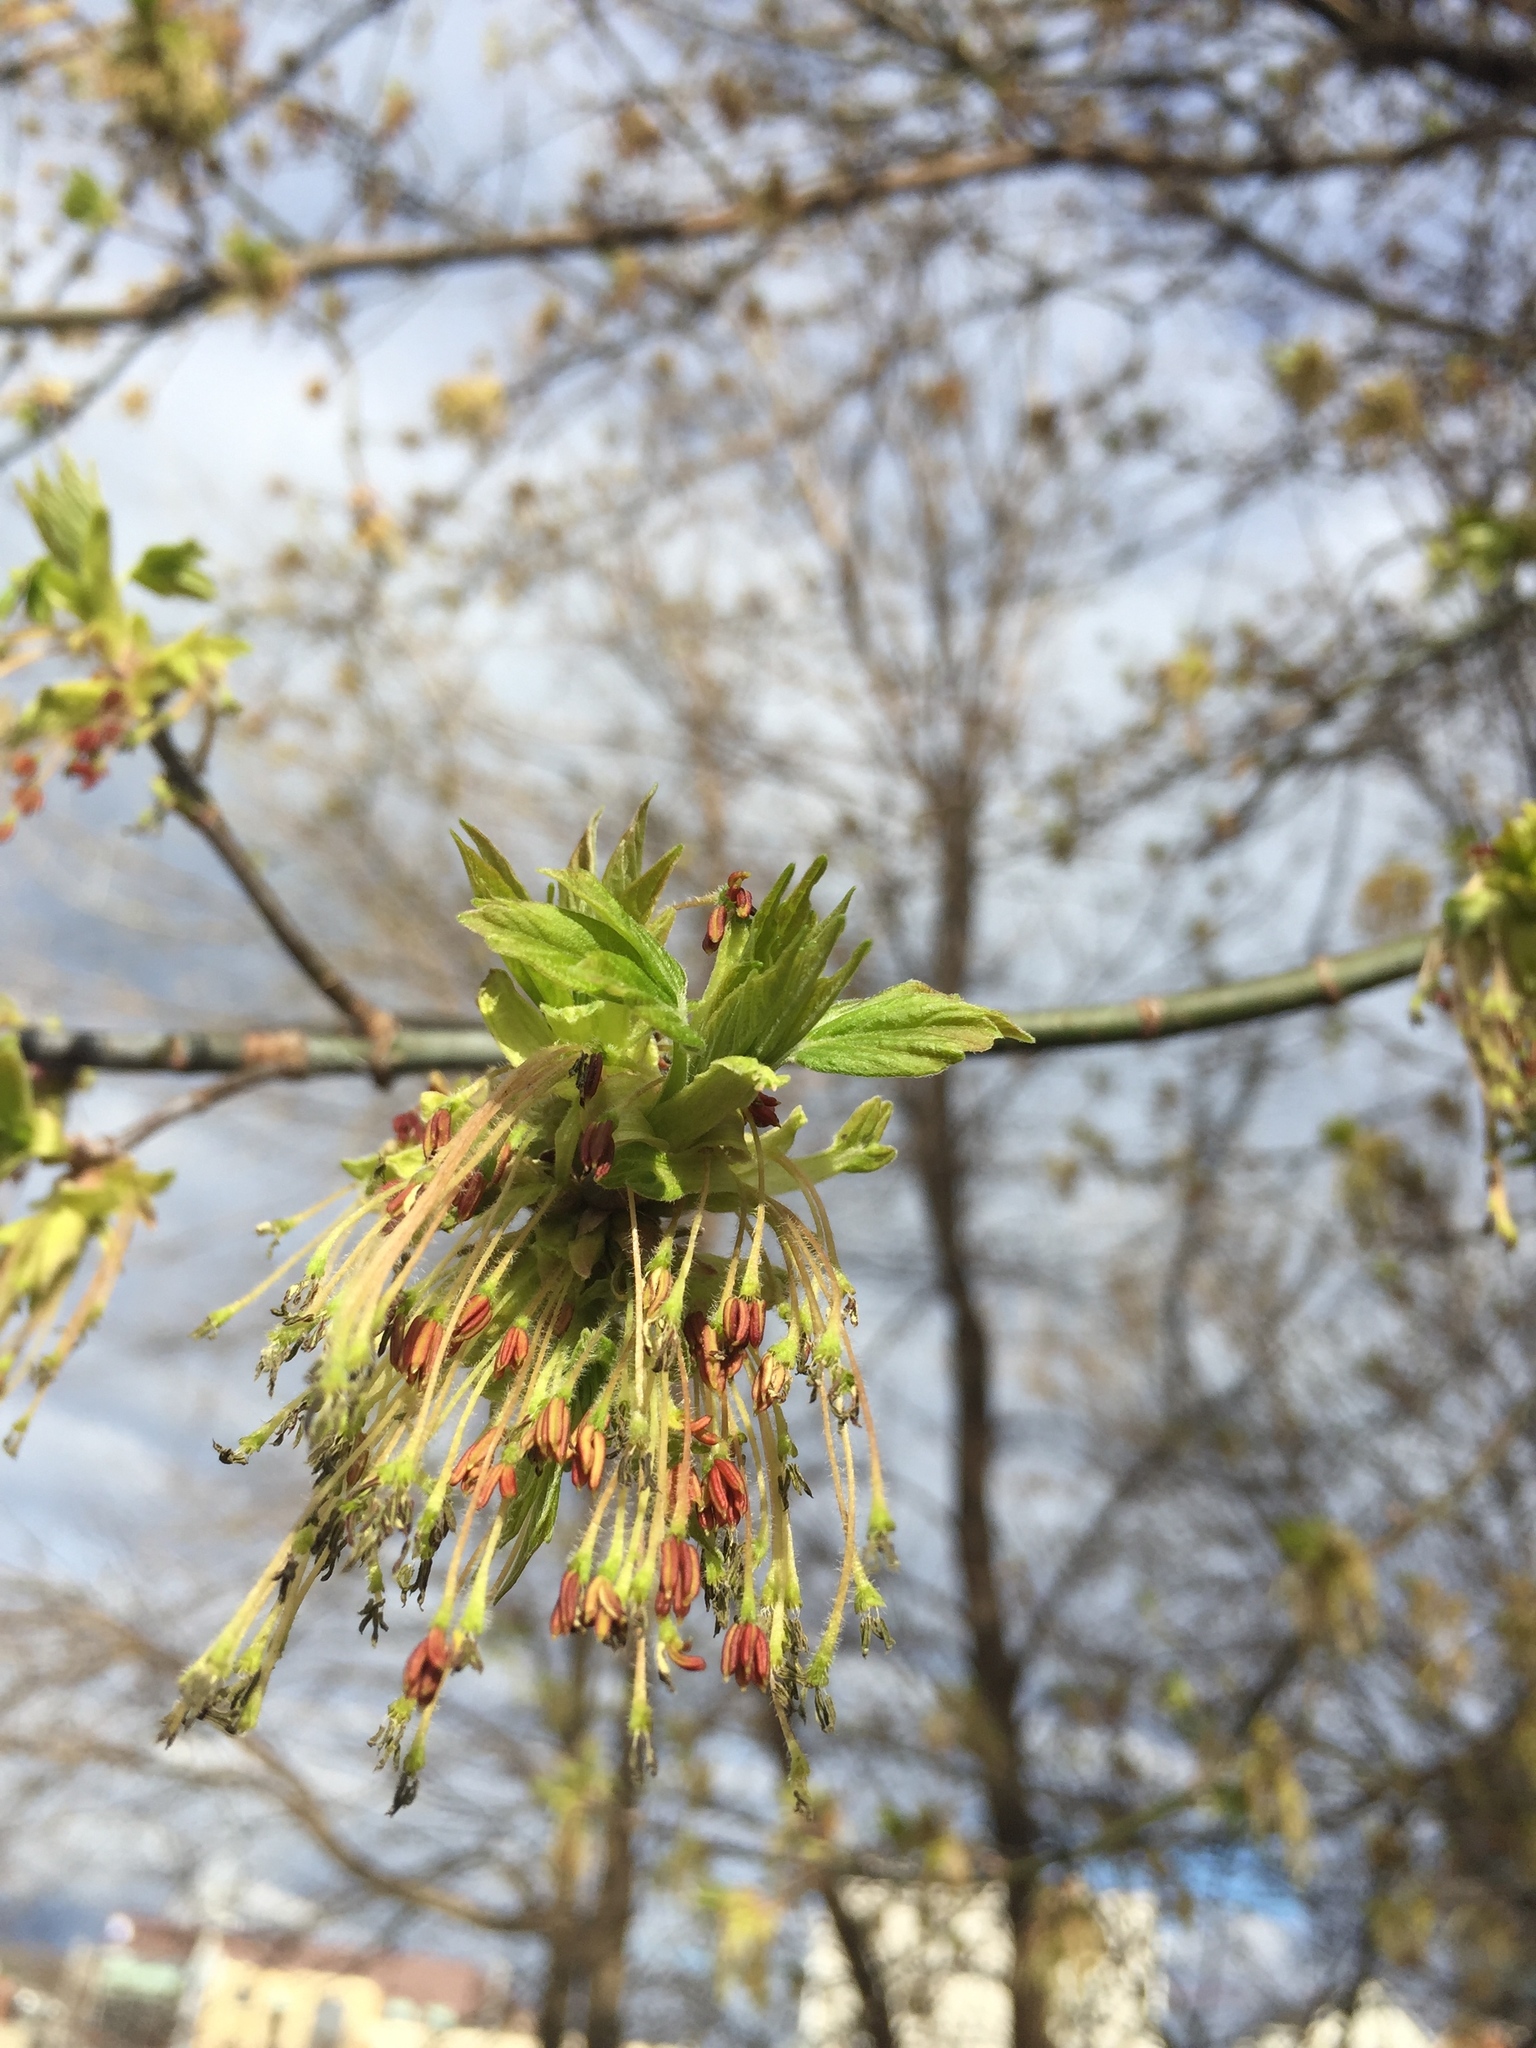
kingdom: Plantae
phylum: Tracheophyta
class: Magnoliopsida
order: Sapindales
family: Sapindaceae
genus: Acer
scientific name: Acer negundo
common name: Ashleaf maple
